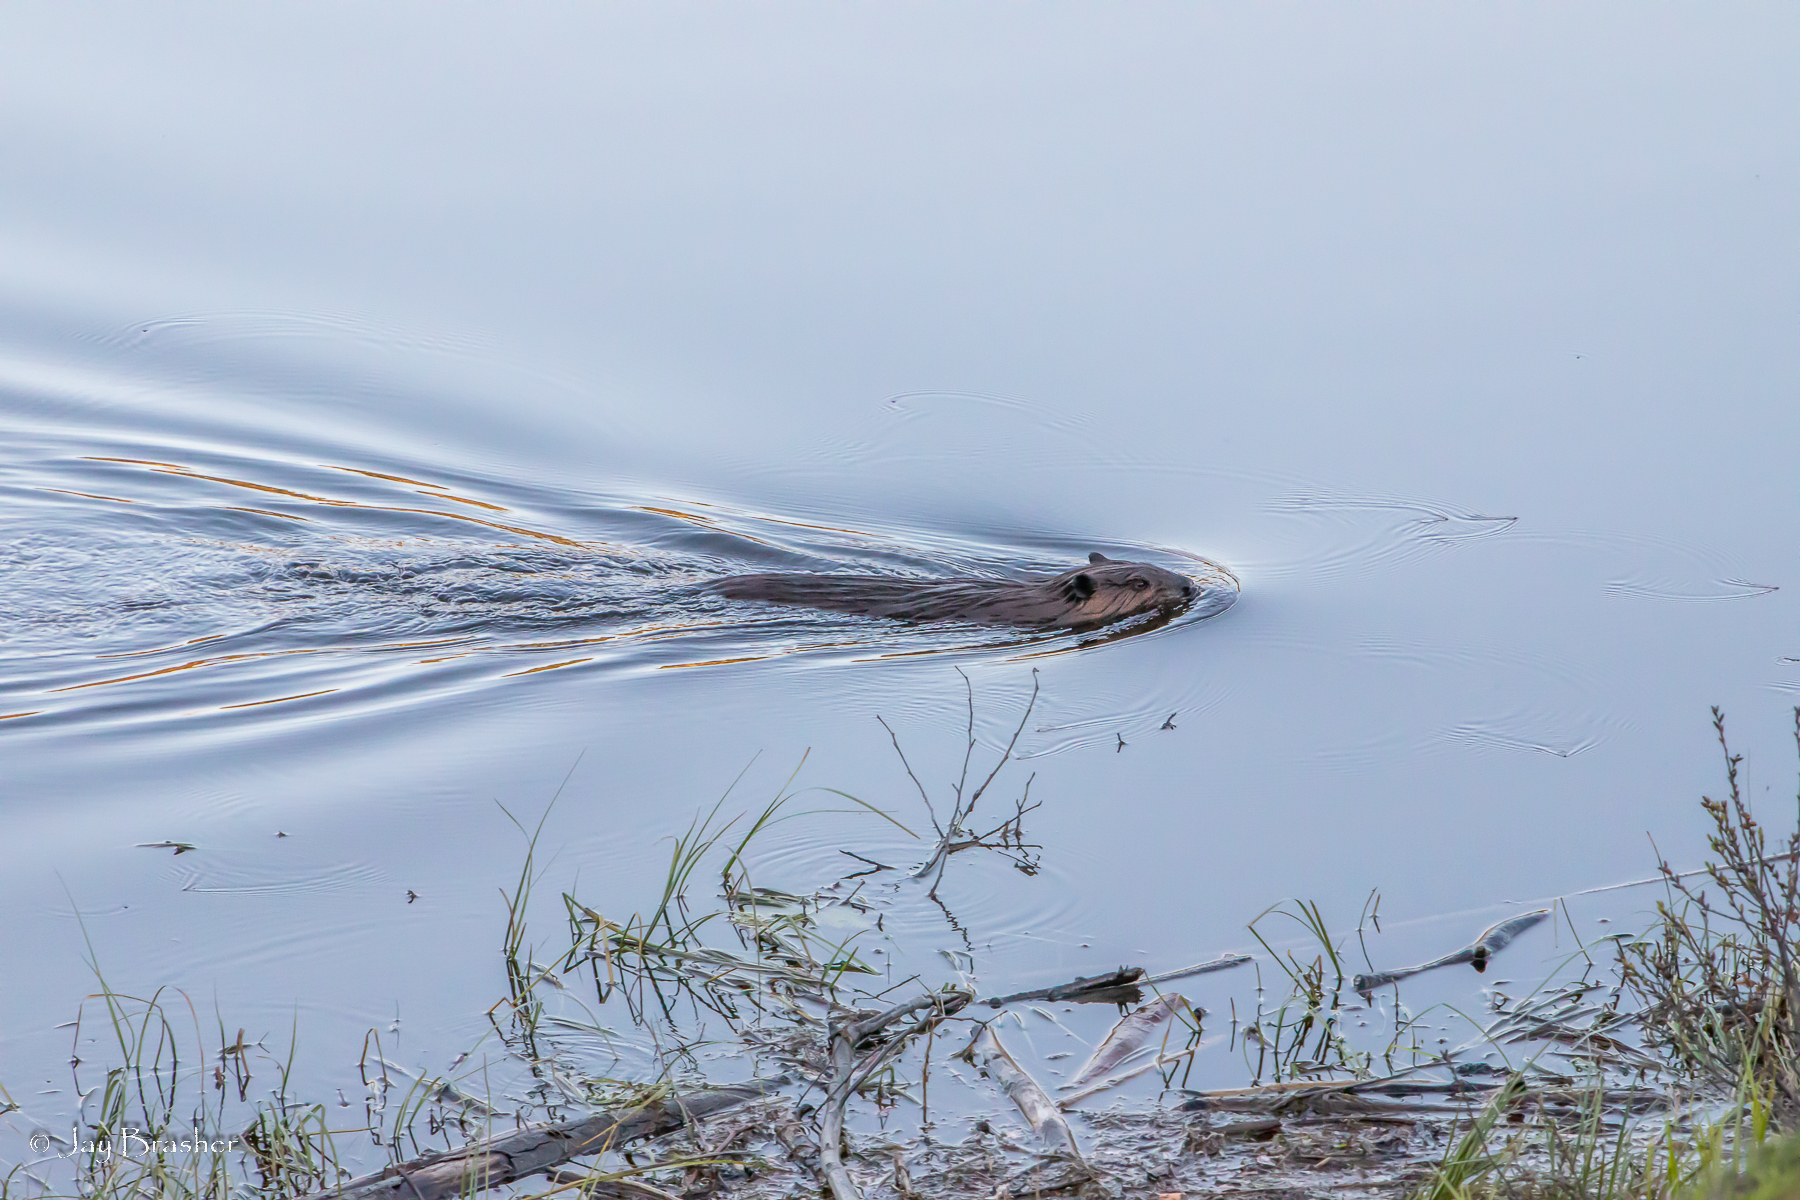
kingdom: Animalia
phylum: Chordata
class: Mammalia
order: Rodentia
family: Castoridae
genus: Castor
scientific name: Castor canadensis
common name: American beaver
